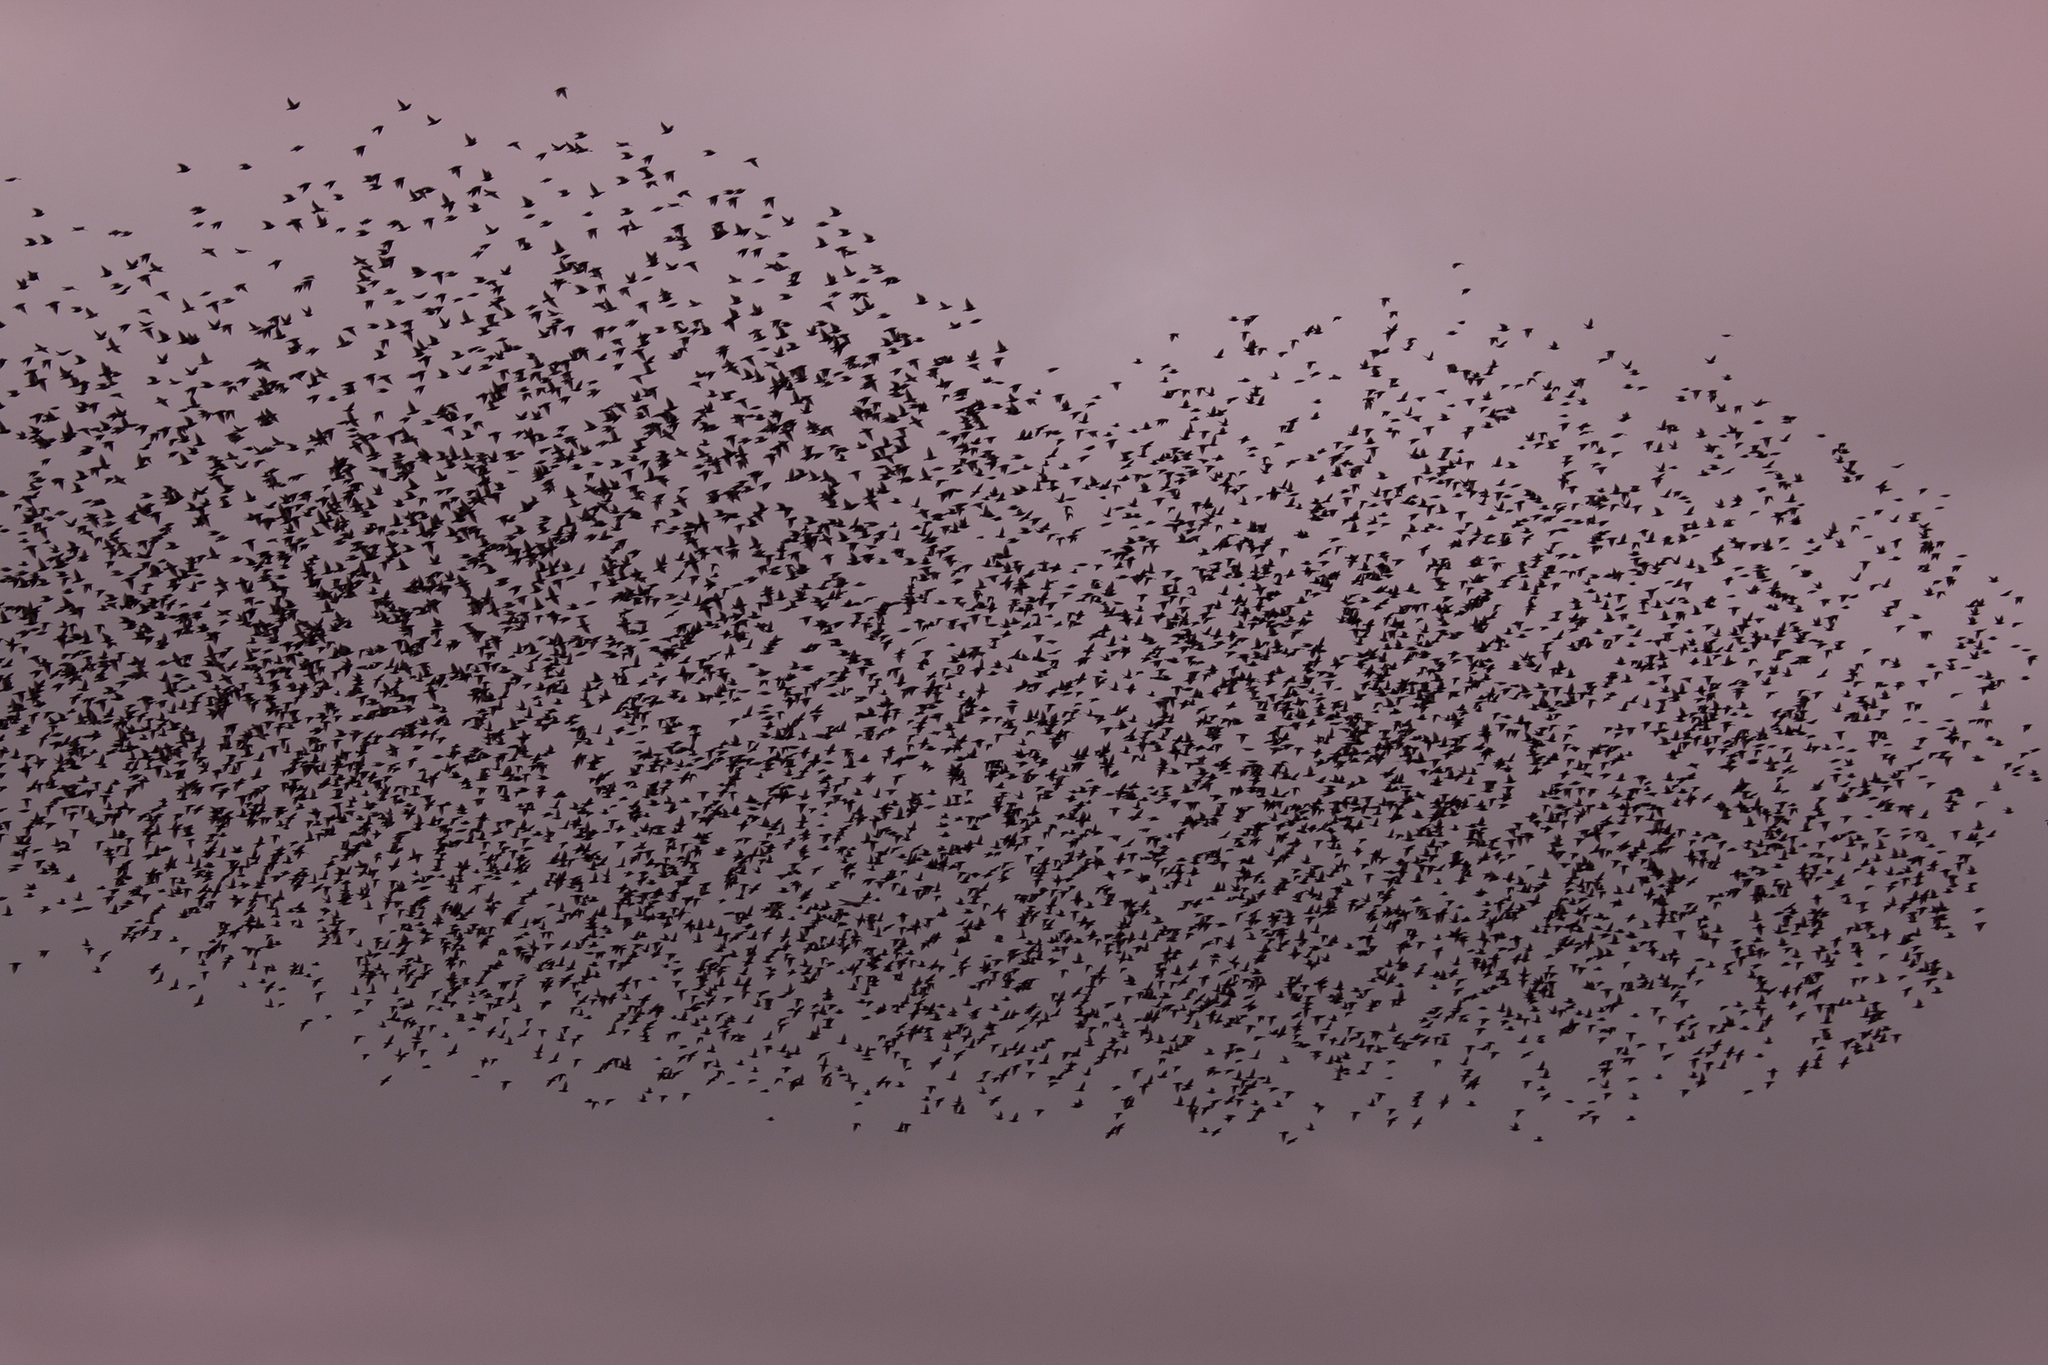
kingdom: Animalia
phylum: Chordata
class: Aves
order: Passeriformes
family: Sturnidae
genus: Sturnus
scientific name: Sturnus vulgaris
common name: Common starling
